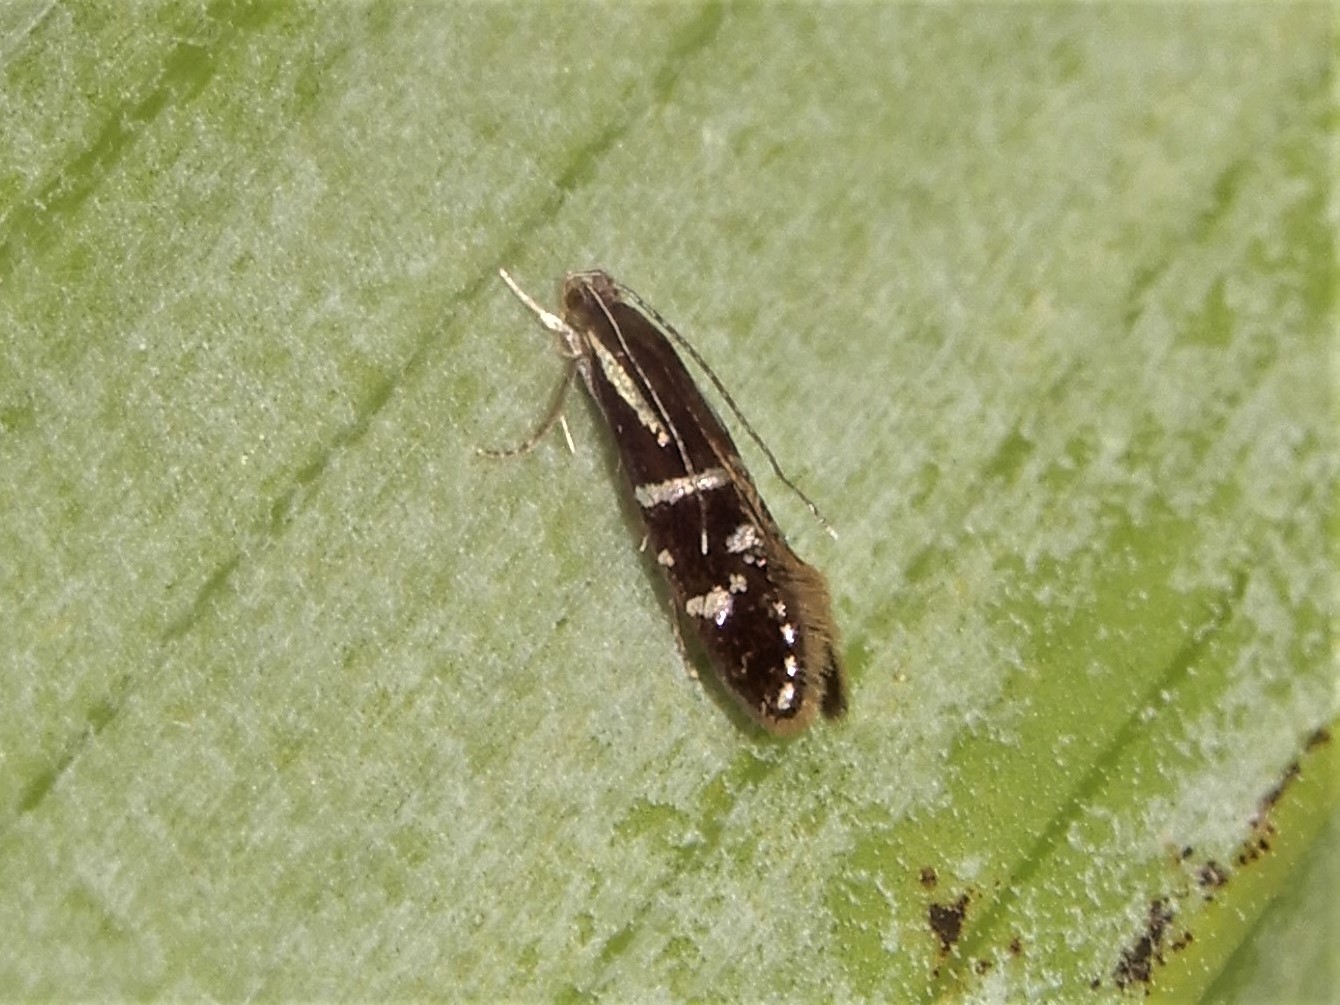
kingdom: Animalia
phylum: Arthropoda
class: Insecta
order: Lepidoptera
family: Tineidae
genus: Astrogenes
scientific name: Astrogenes insignita
